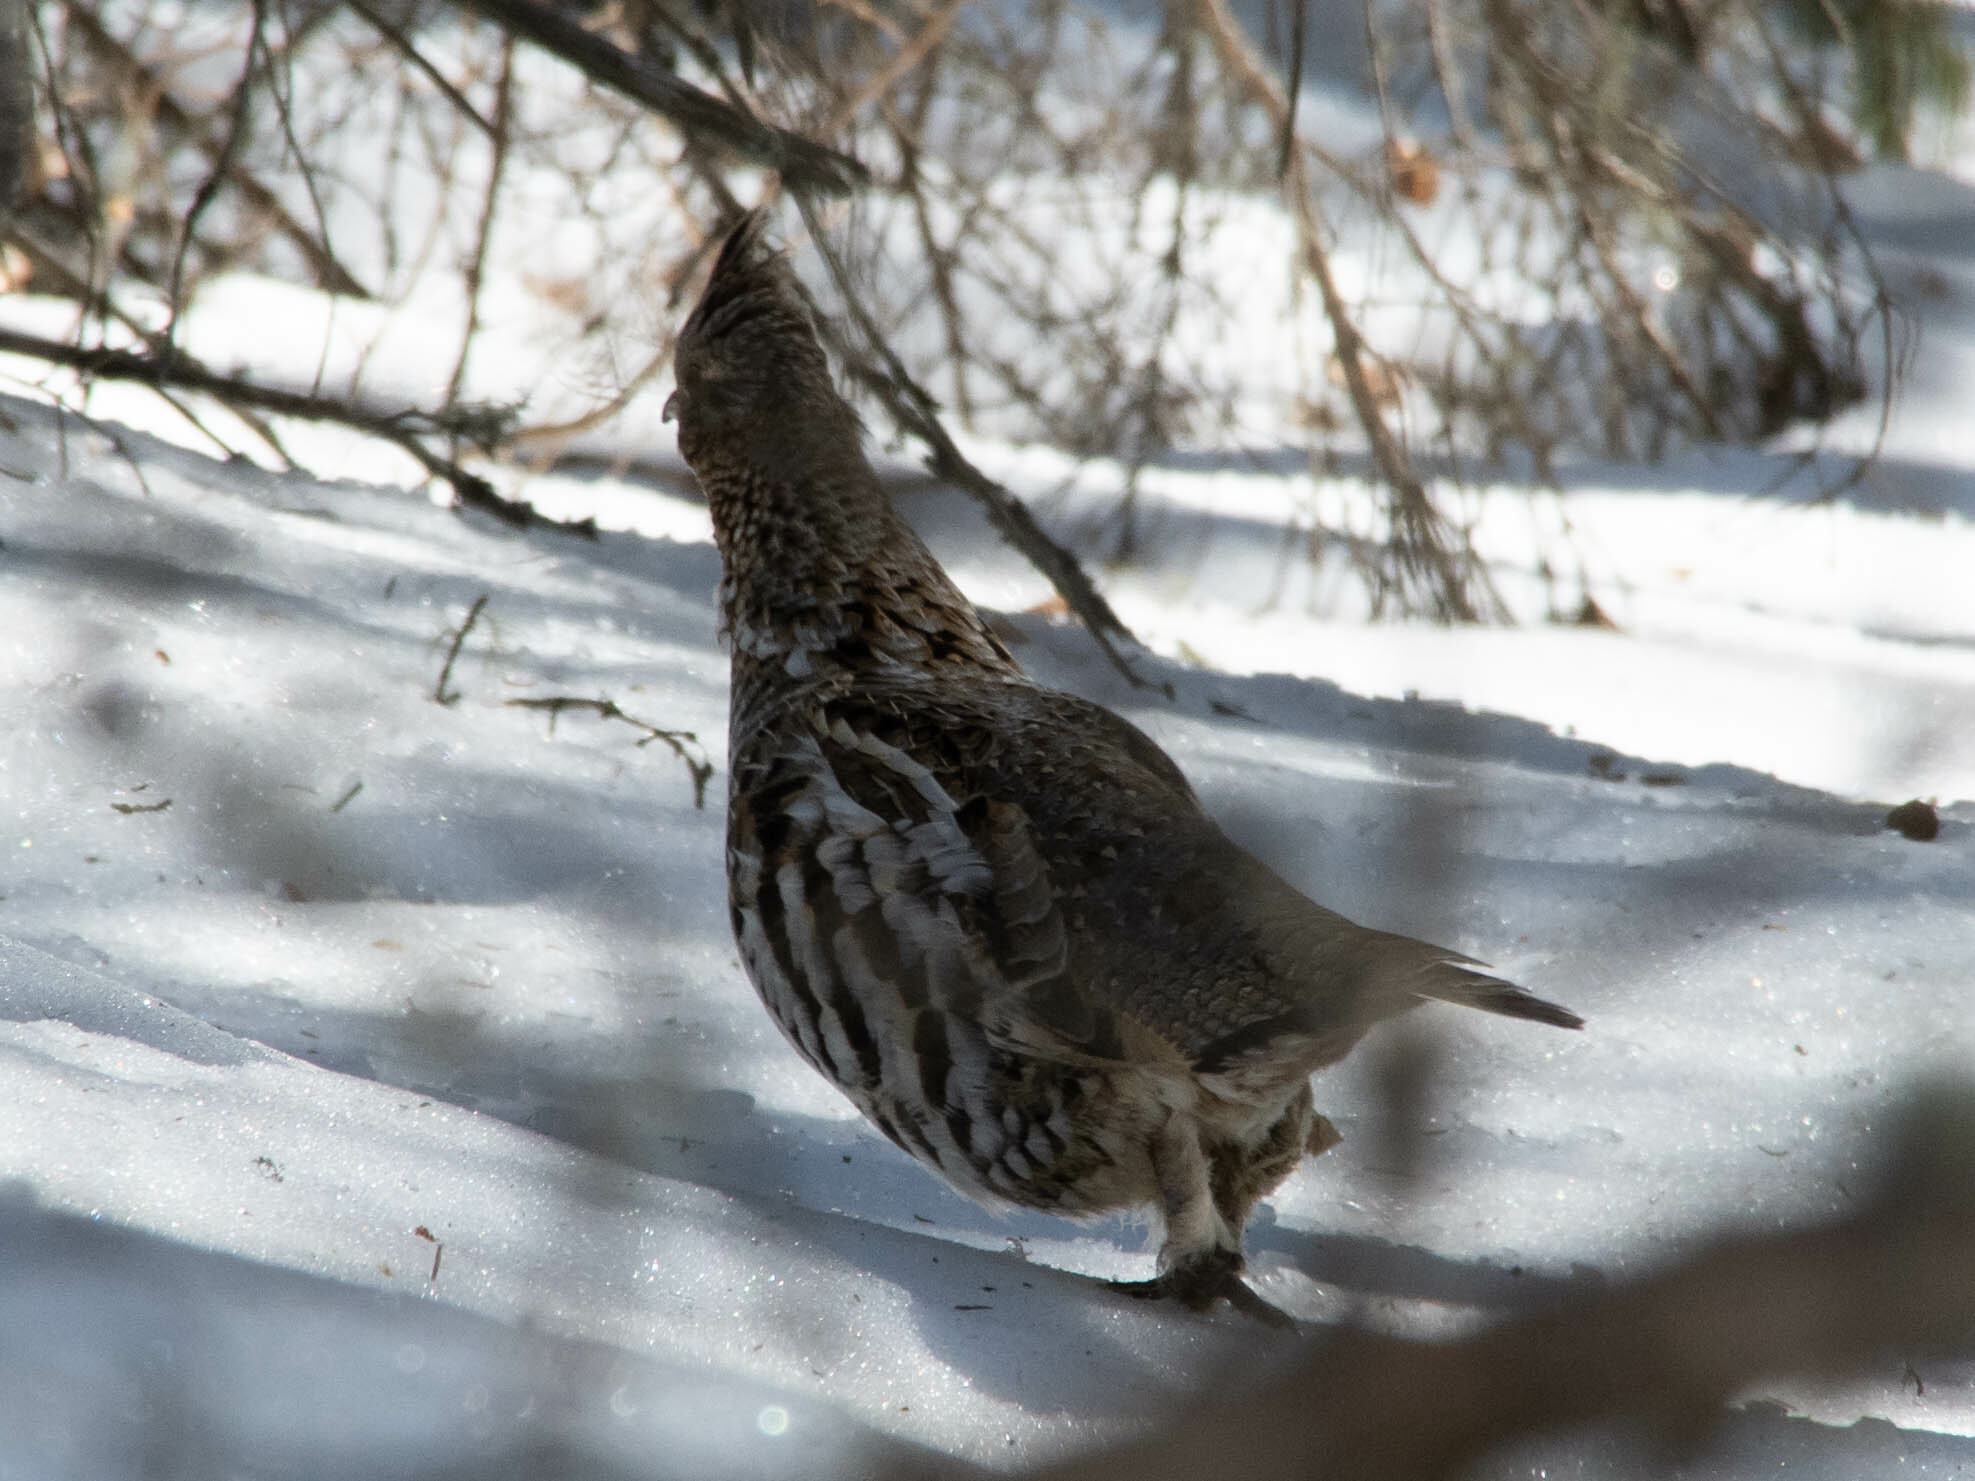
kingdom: Animalia
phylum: Chordata
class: Aves
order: Galliformes
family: Phasianidae
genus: Bonasa
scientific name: Bonasa umbellus
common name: Ruffed grouse
